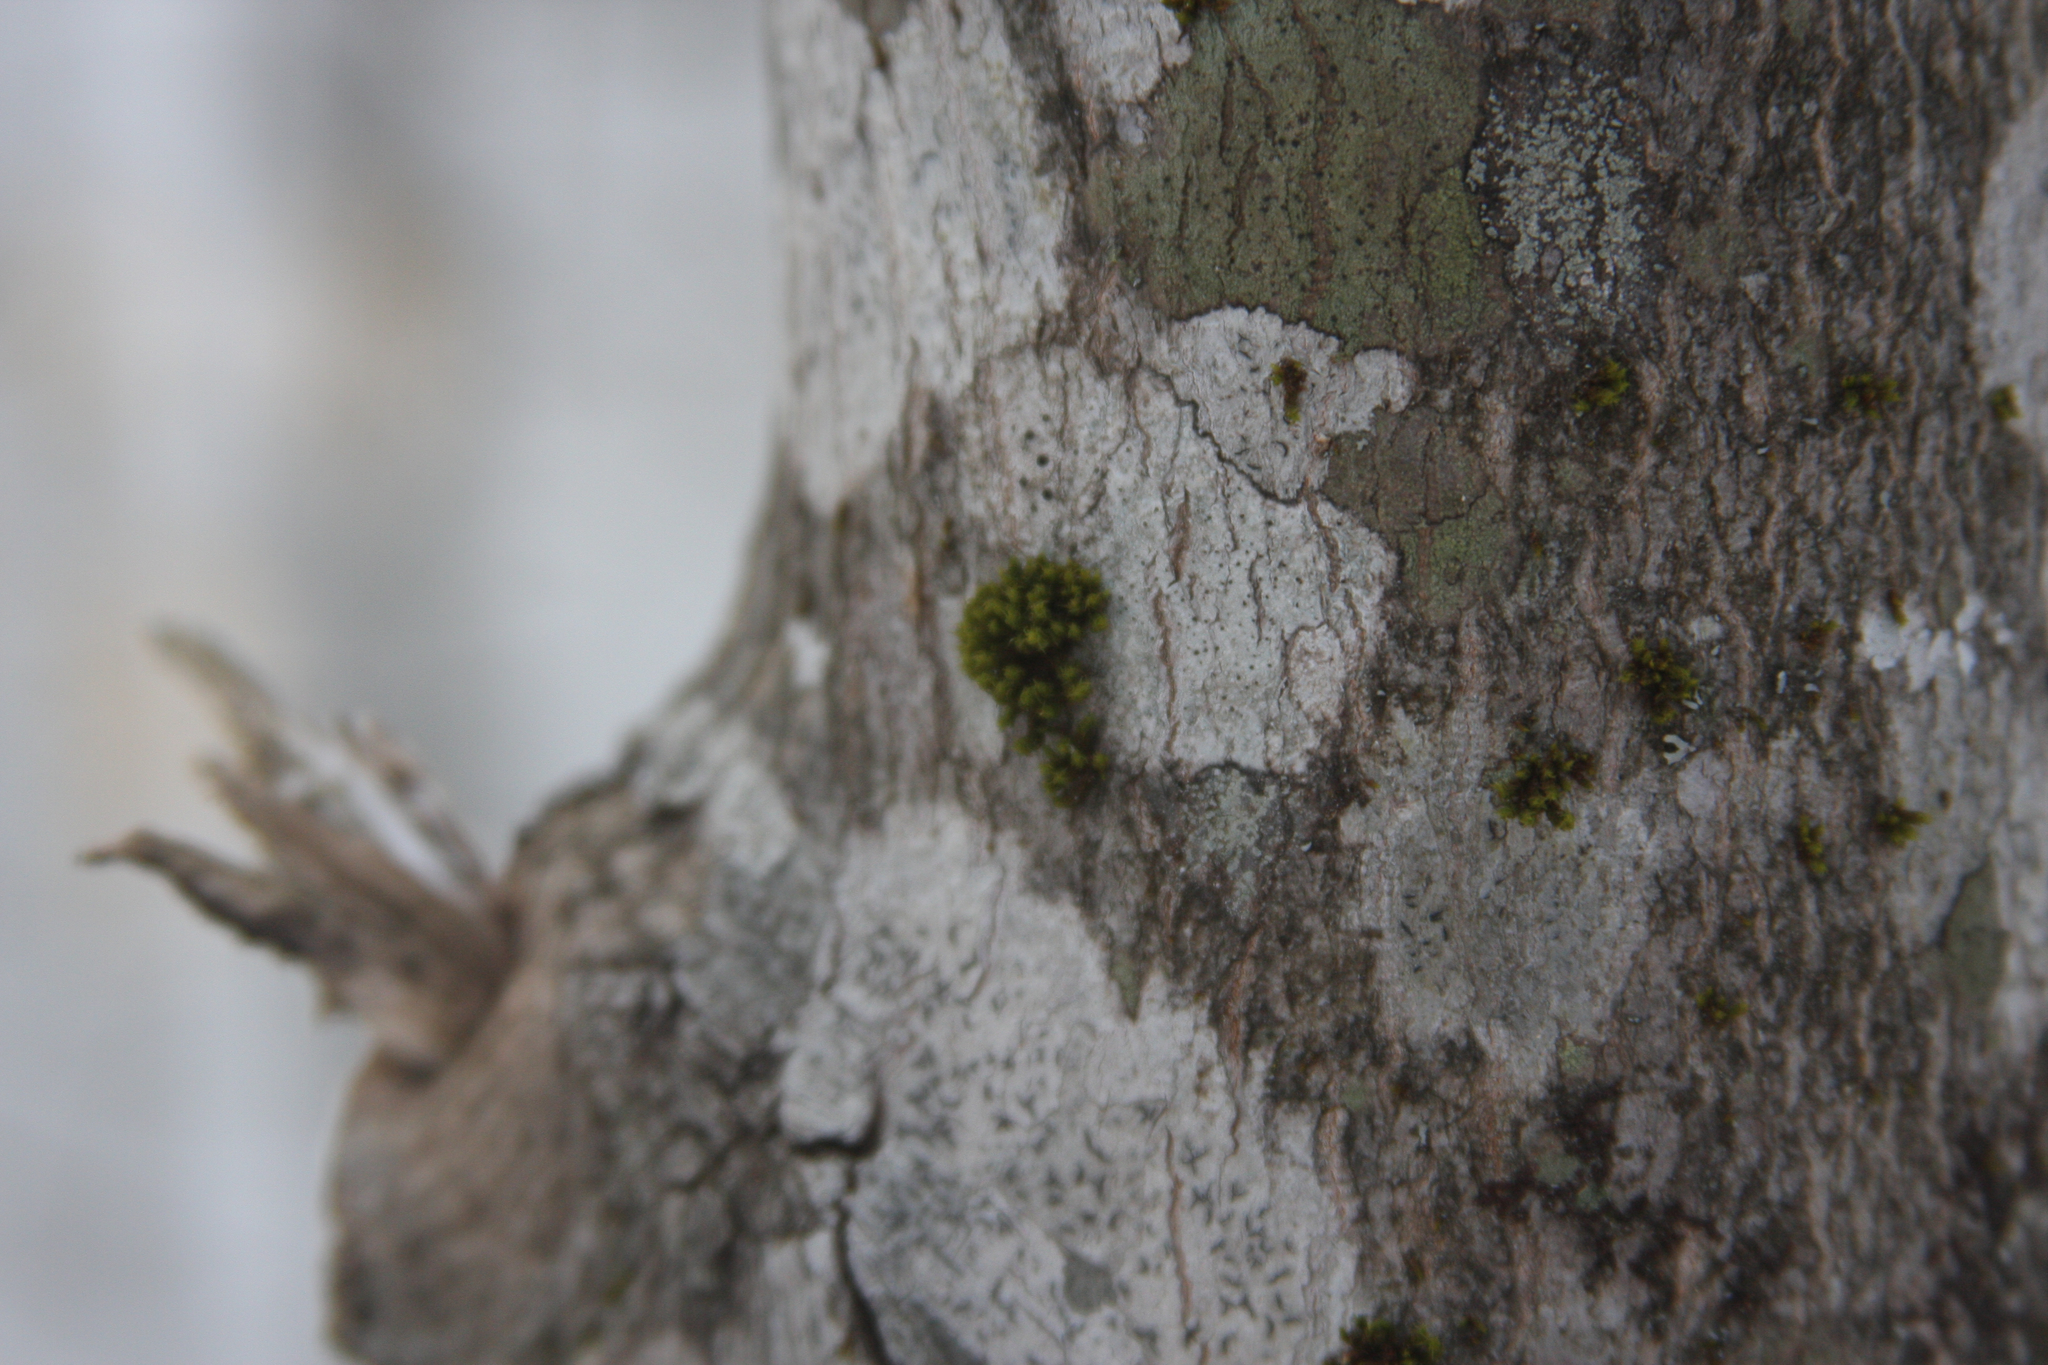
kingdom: Plantae
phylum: Bryophyta
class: Bryopsida
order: Orthotrichales
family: Orthotrichaceae
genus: Ulota
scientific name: Ulota crispa
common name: Crisped pincushion moss
